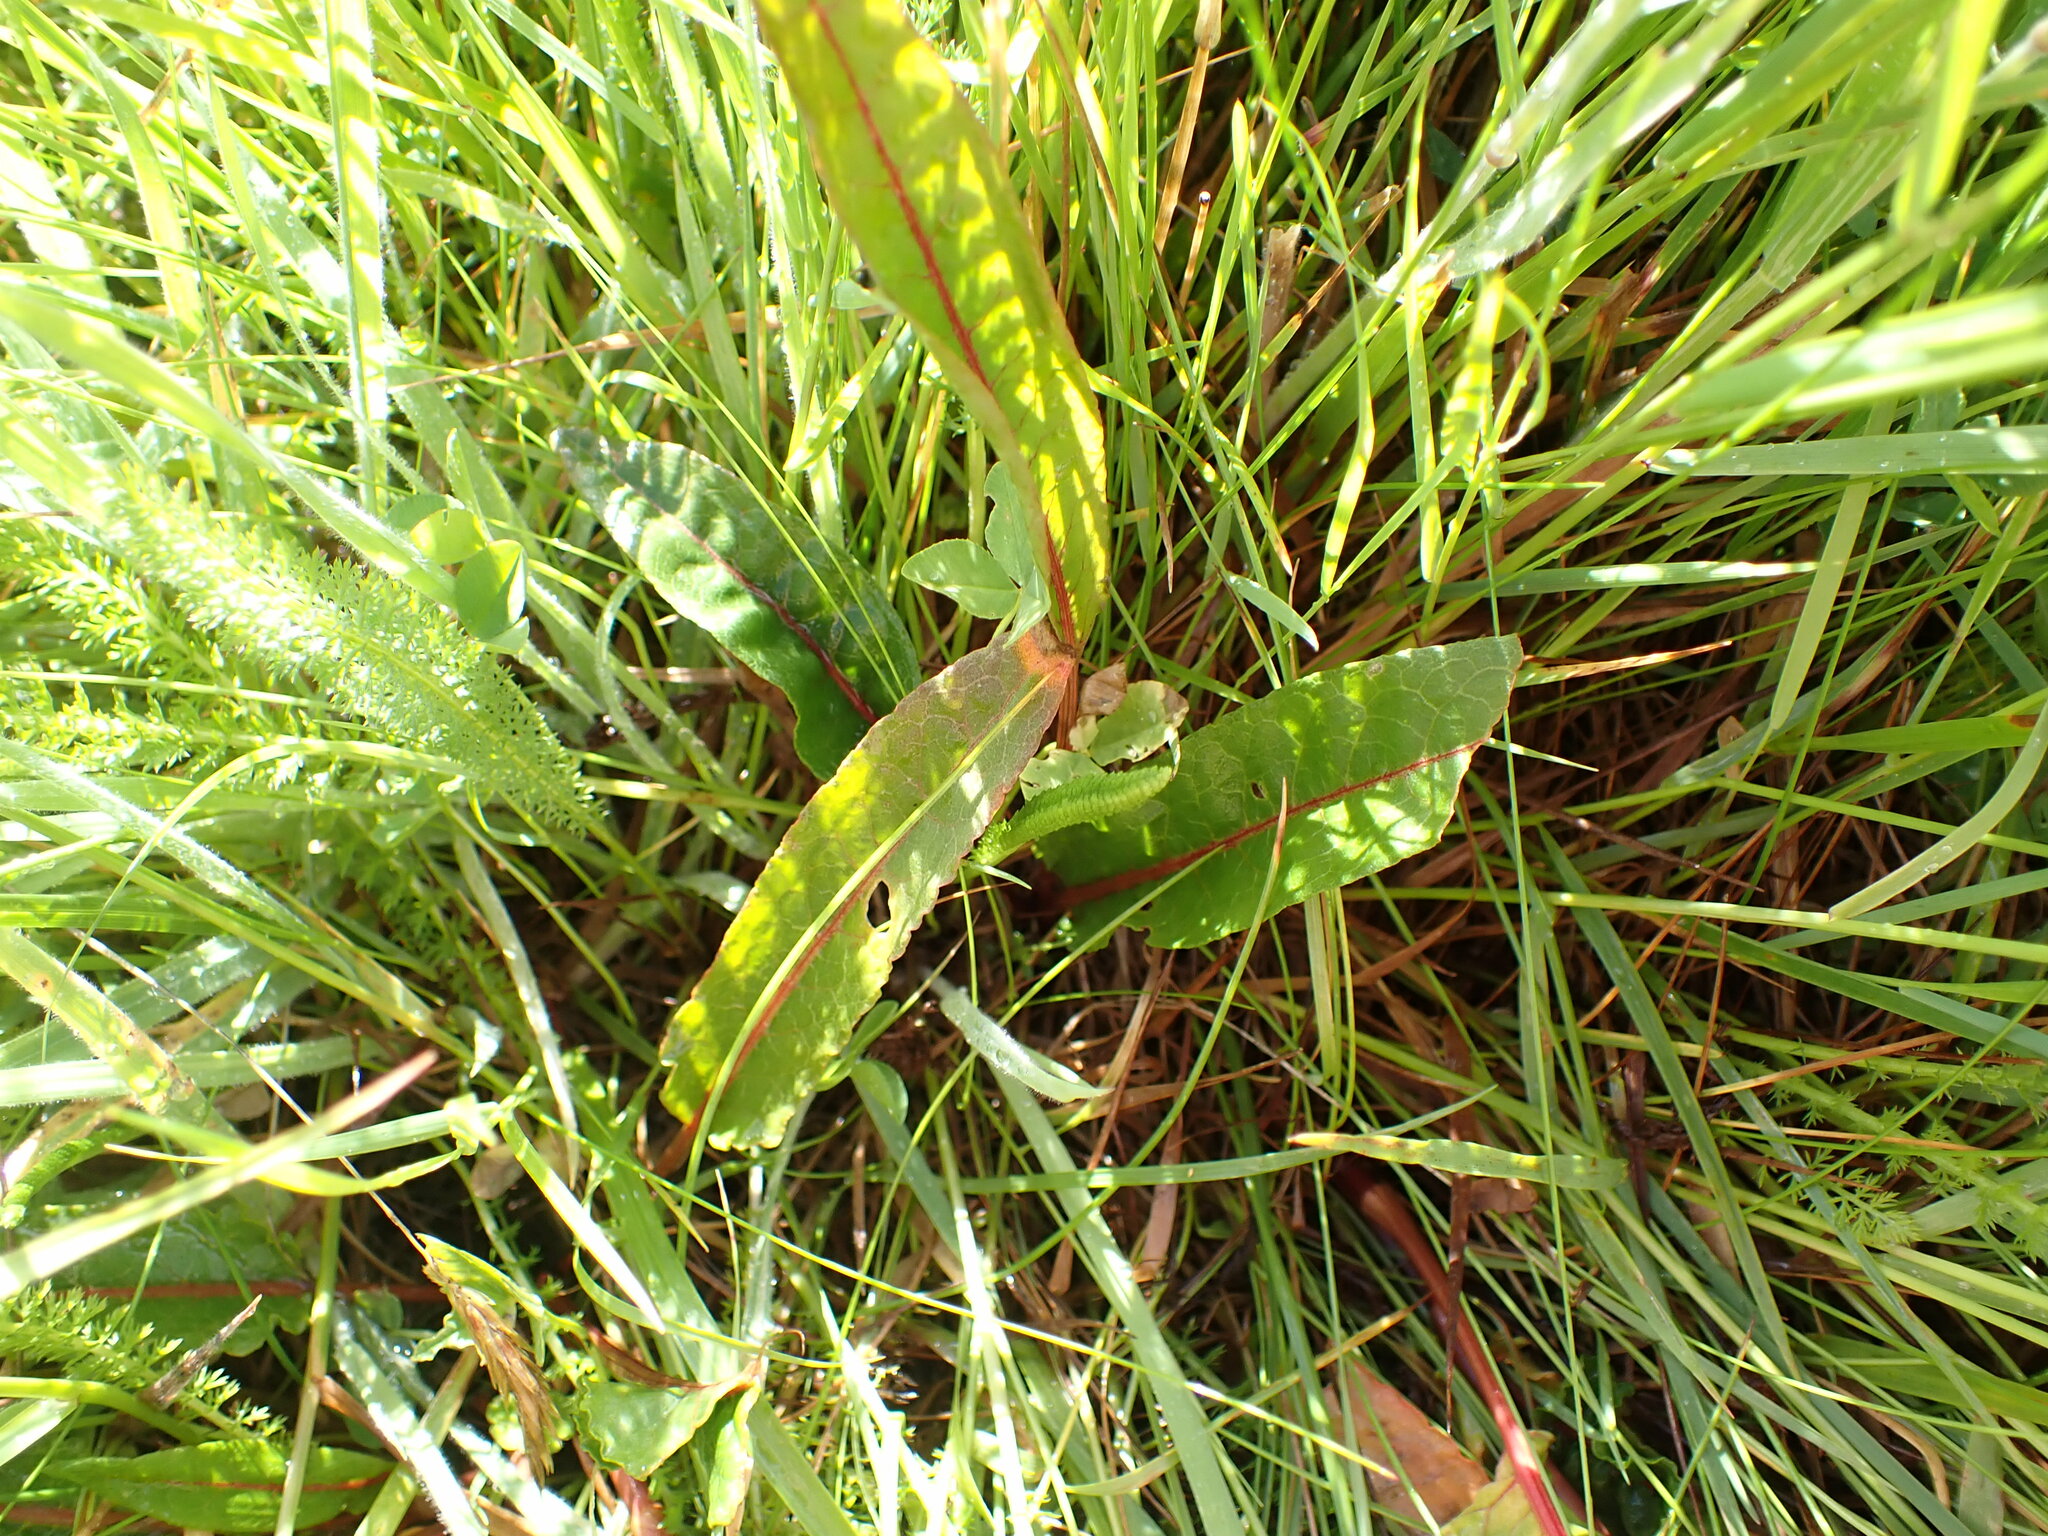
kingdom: Plantae
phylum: Tracheophyta
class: Magnoliopsida
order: Caryophyllales
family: Polygonaceae
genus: Rumex
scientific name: Rumex flexuosus
